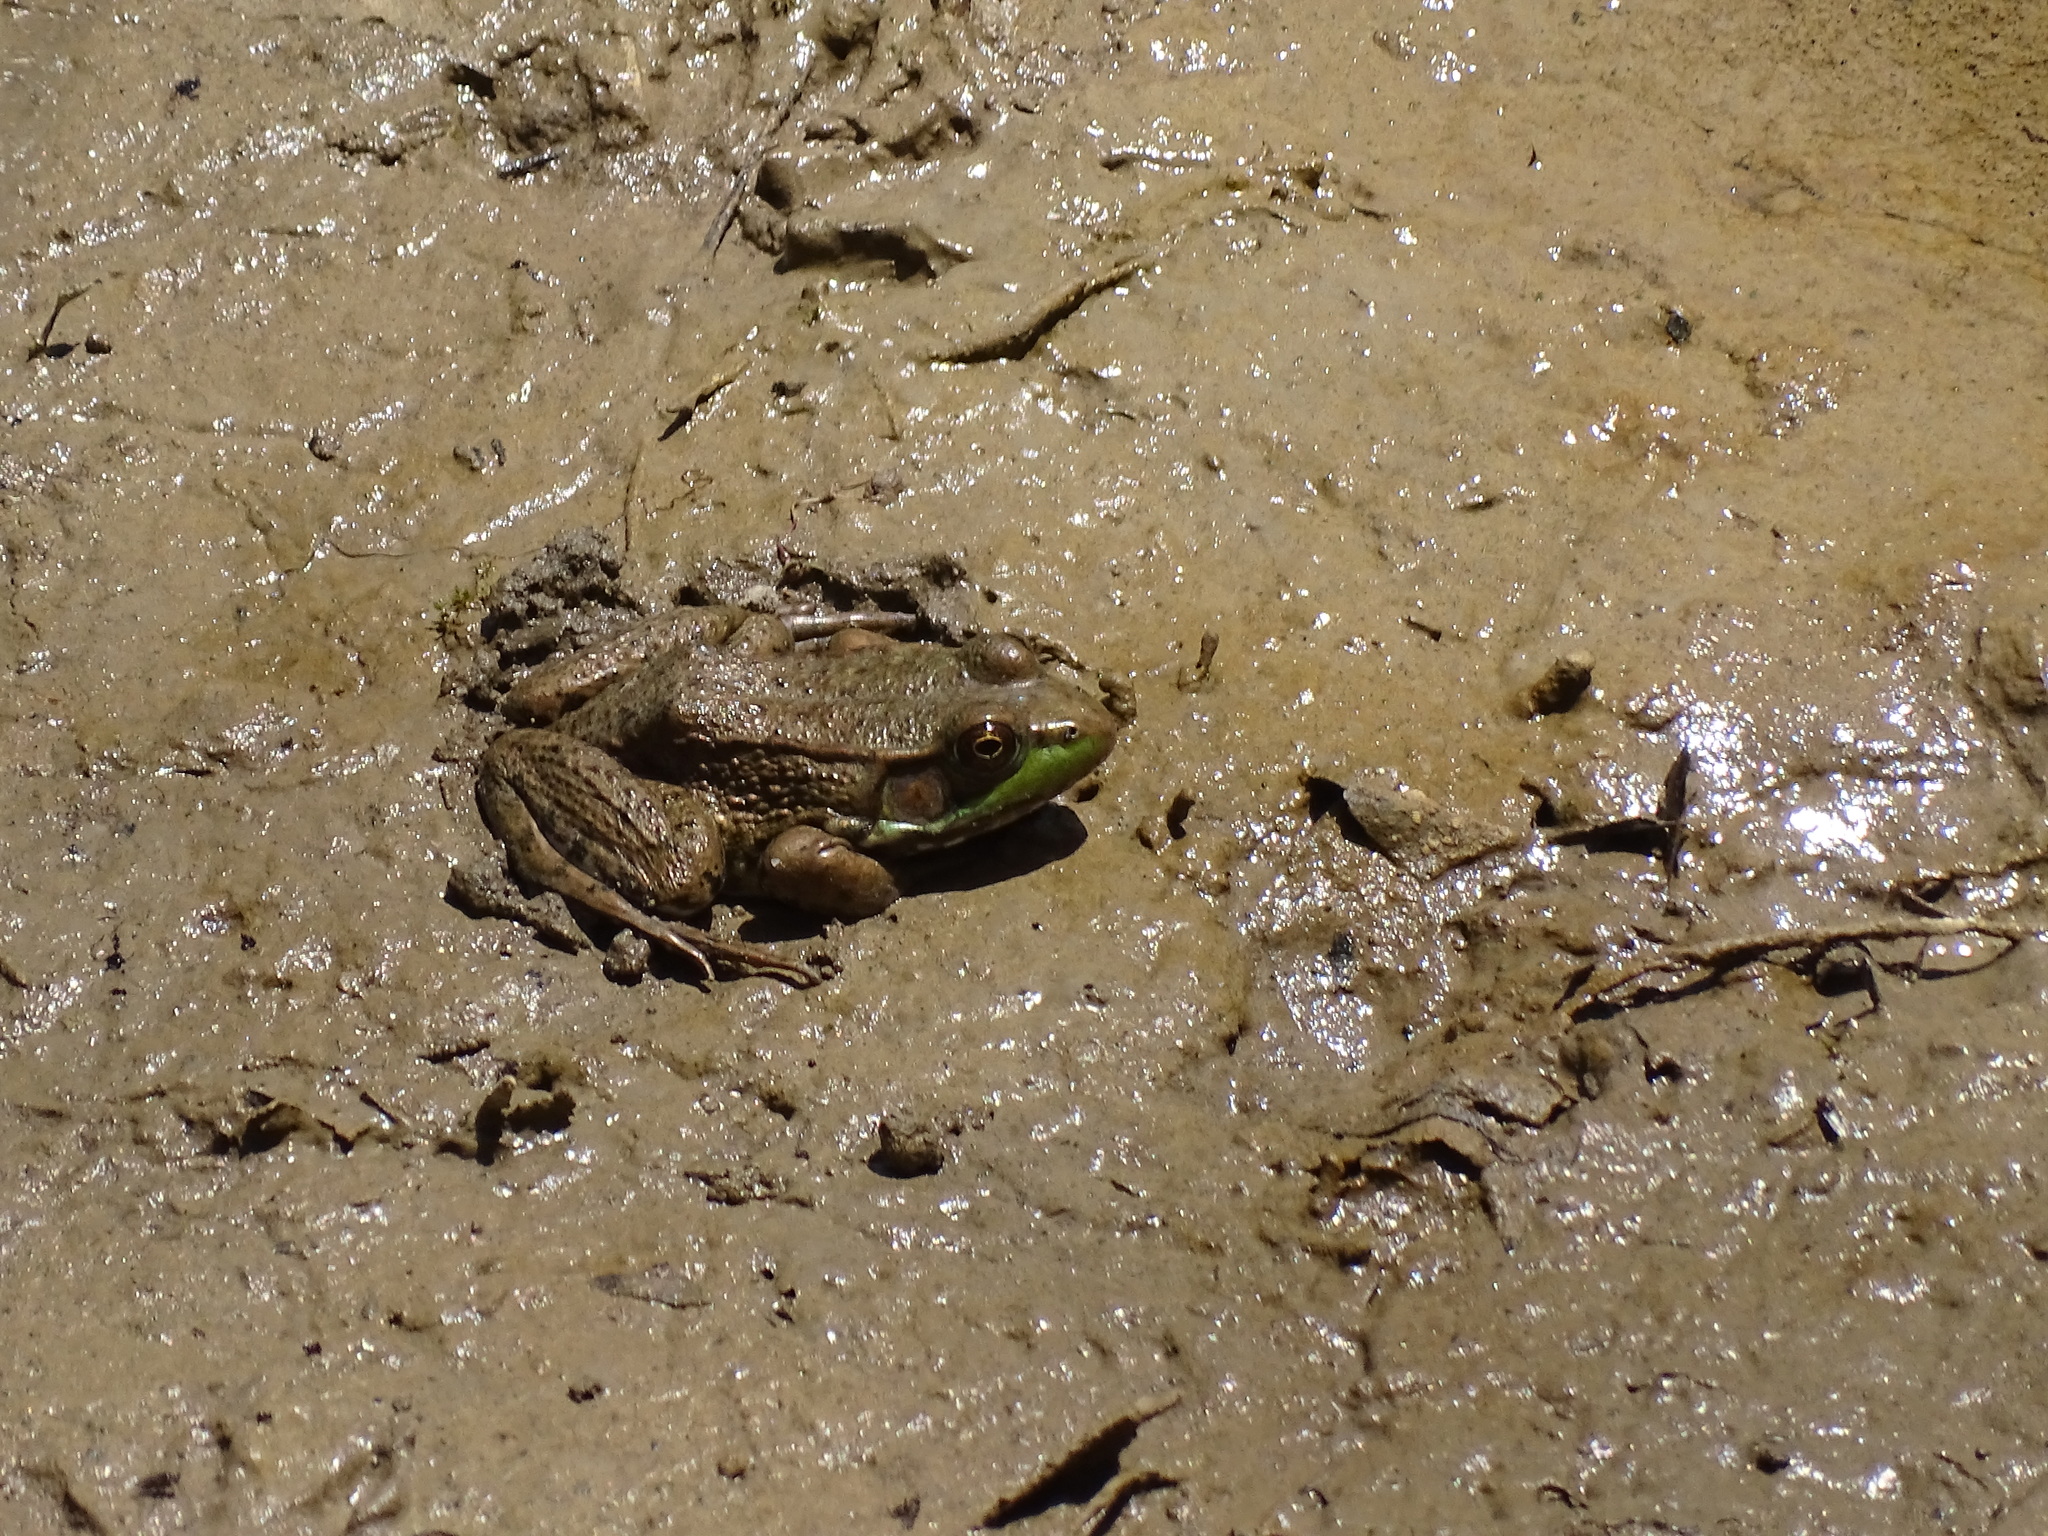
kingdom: Animalia
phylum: Chordata
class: Amphibia
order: Anura
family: Ranidae
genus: Lithobates
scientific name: Lithobates clamitans
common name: Green frog
